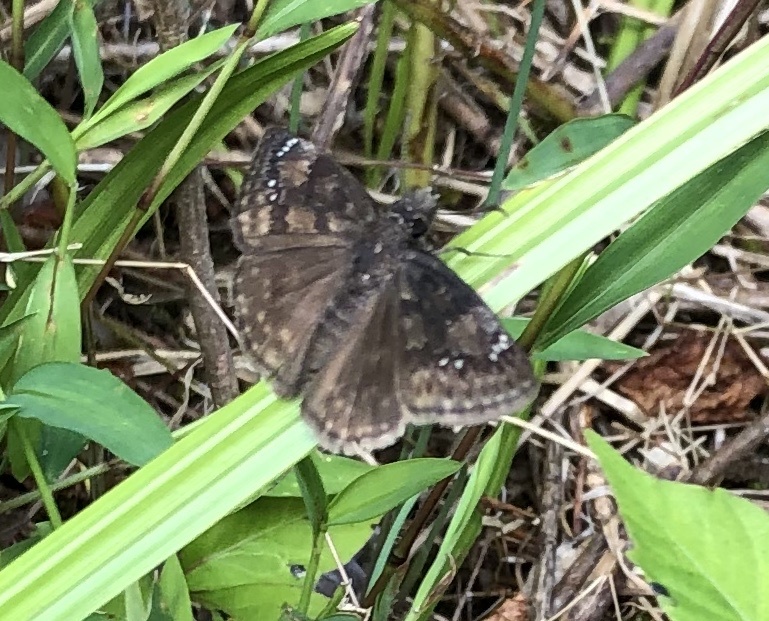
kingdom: Animalia
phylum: Arthropoda
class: Insecta
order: Lepidoptera
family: Hesperiidae
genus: Erynnis
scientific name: Erynnis baptisiae
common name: Wild indigo duskywing
